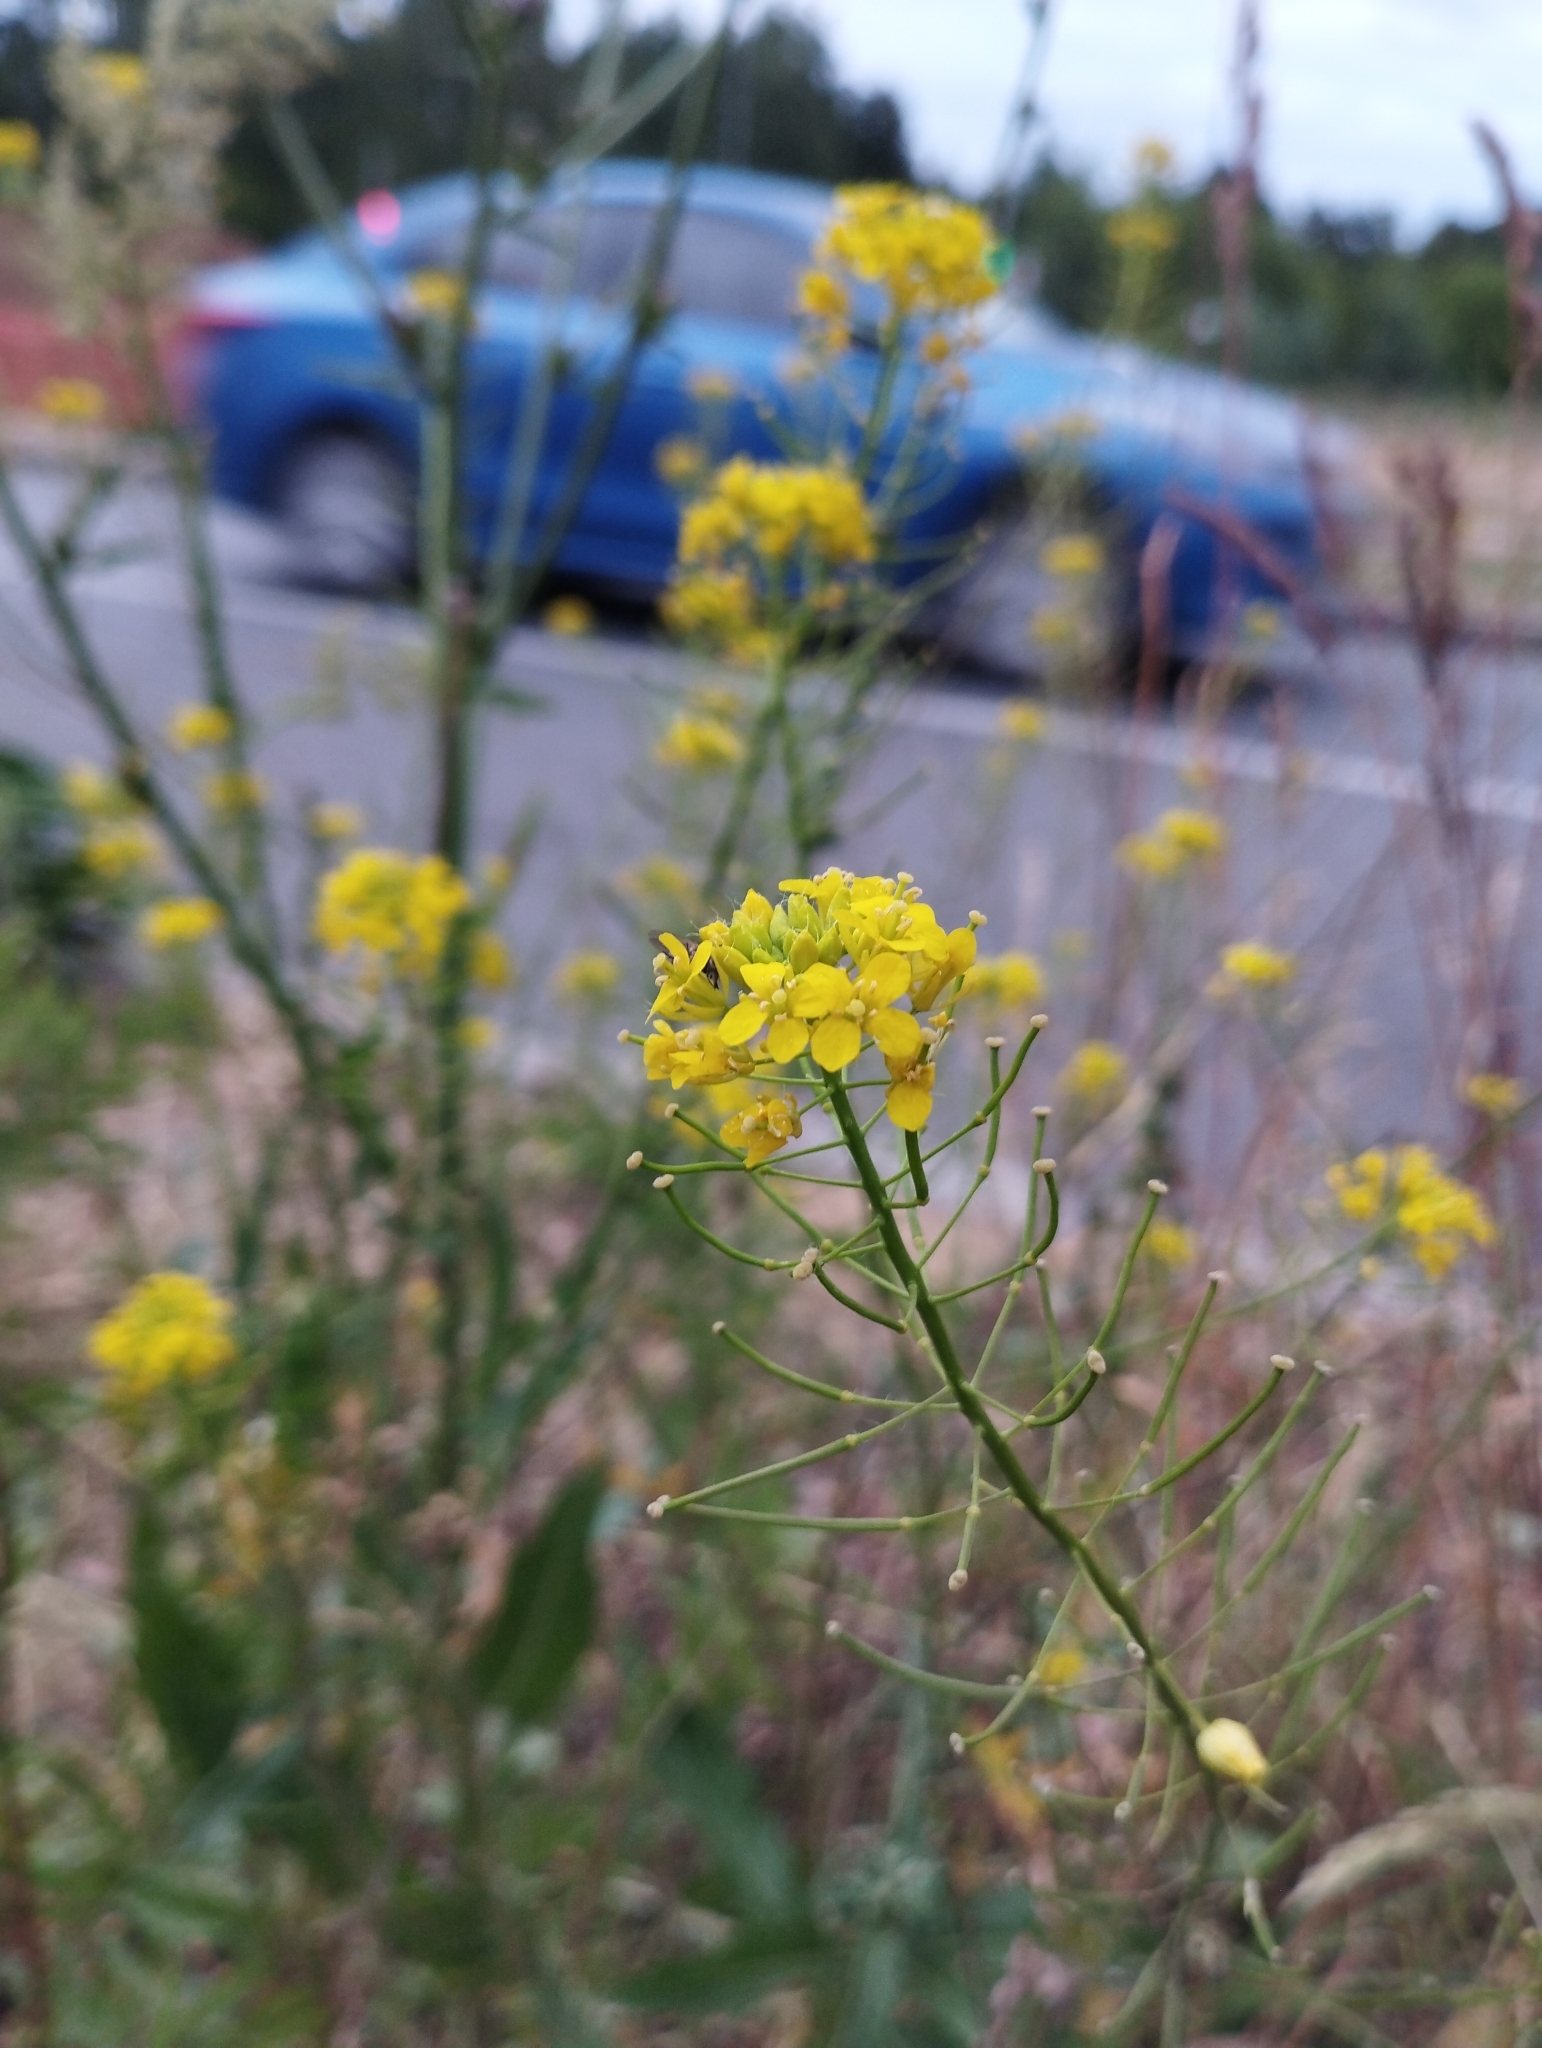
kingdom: Plantae
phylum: Tracheophyta
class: Magnoliopsida
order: Brassicales
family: Brassicaceae
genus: Sisymbrium
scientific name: Sisymbrium loeselii
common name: False london-rocket
